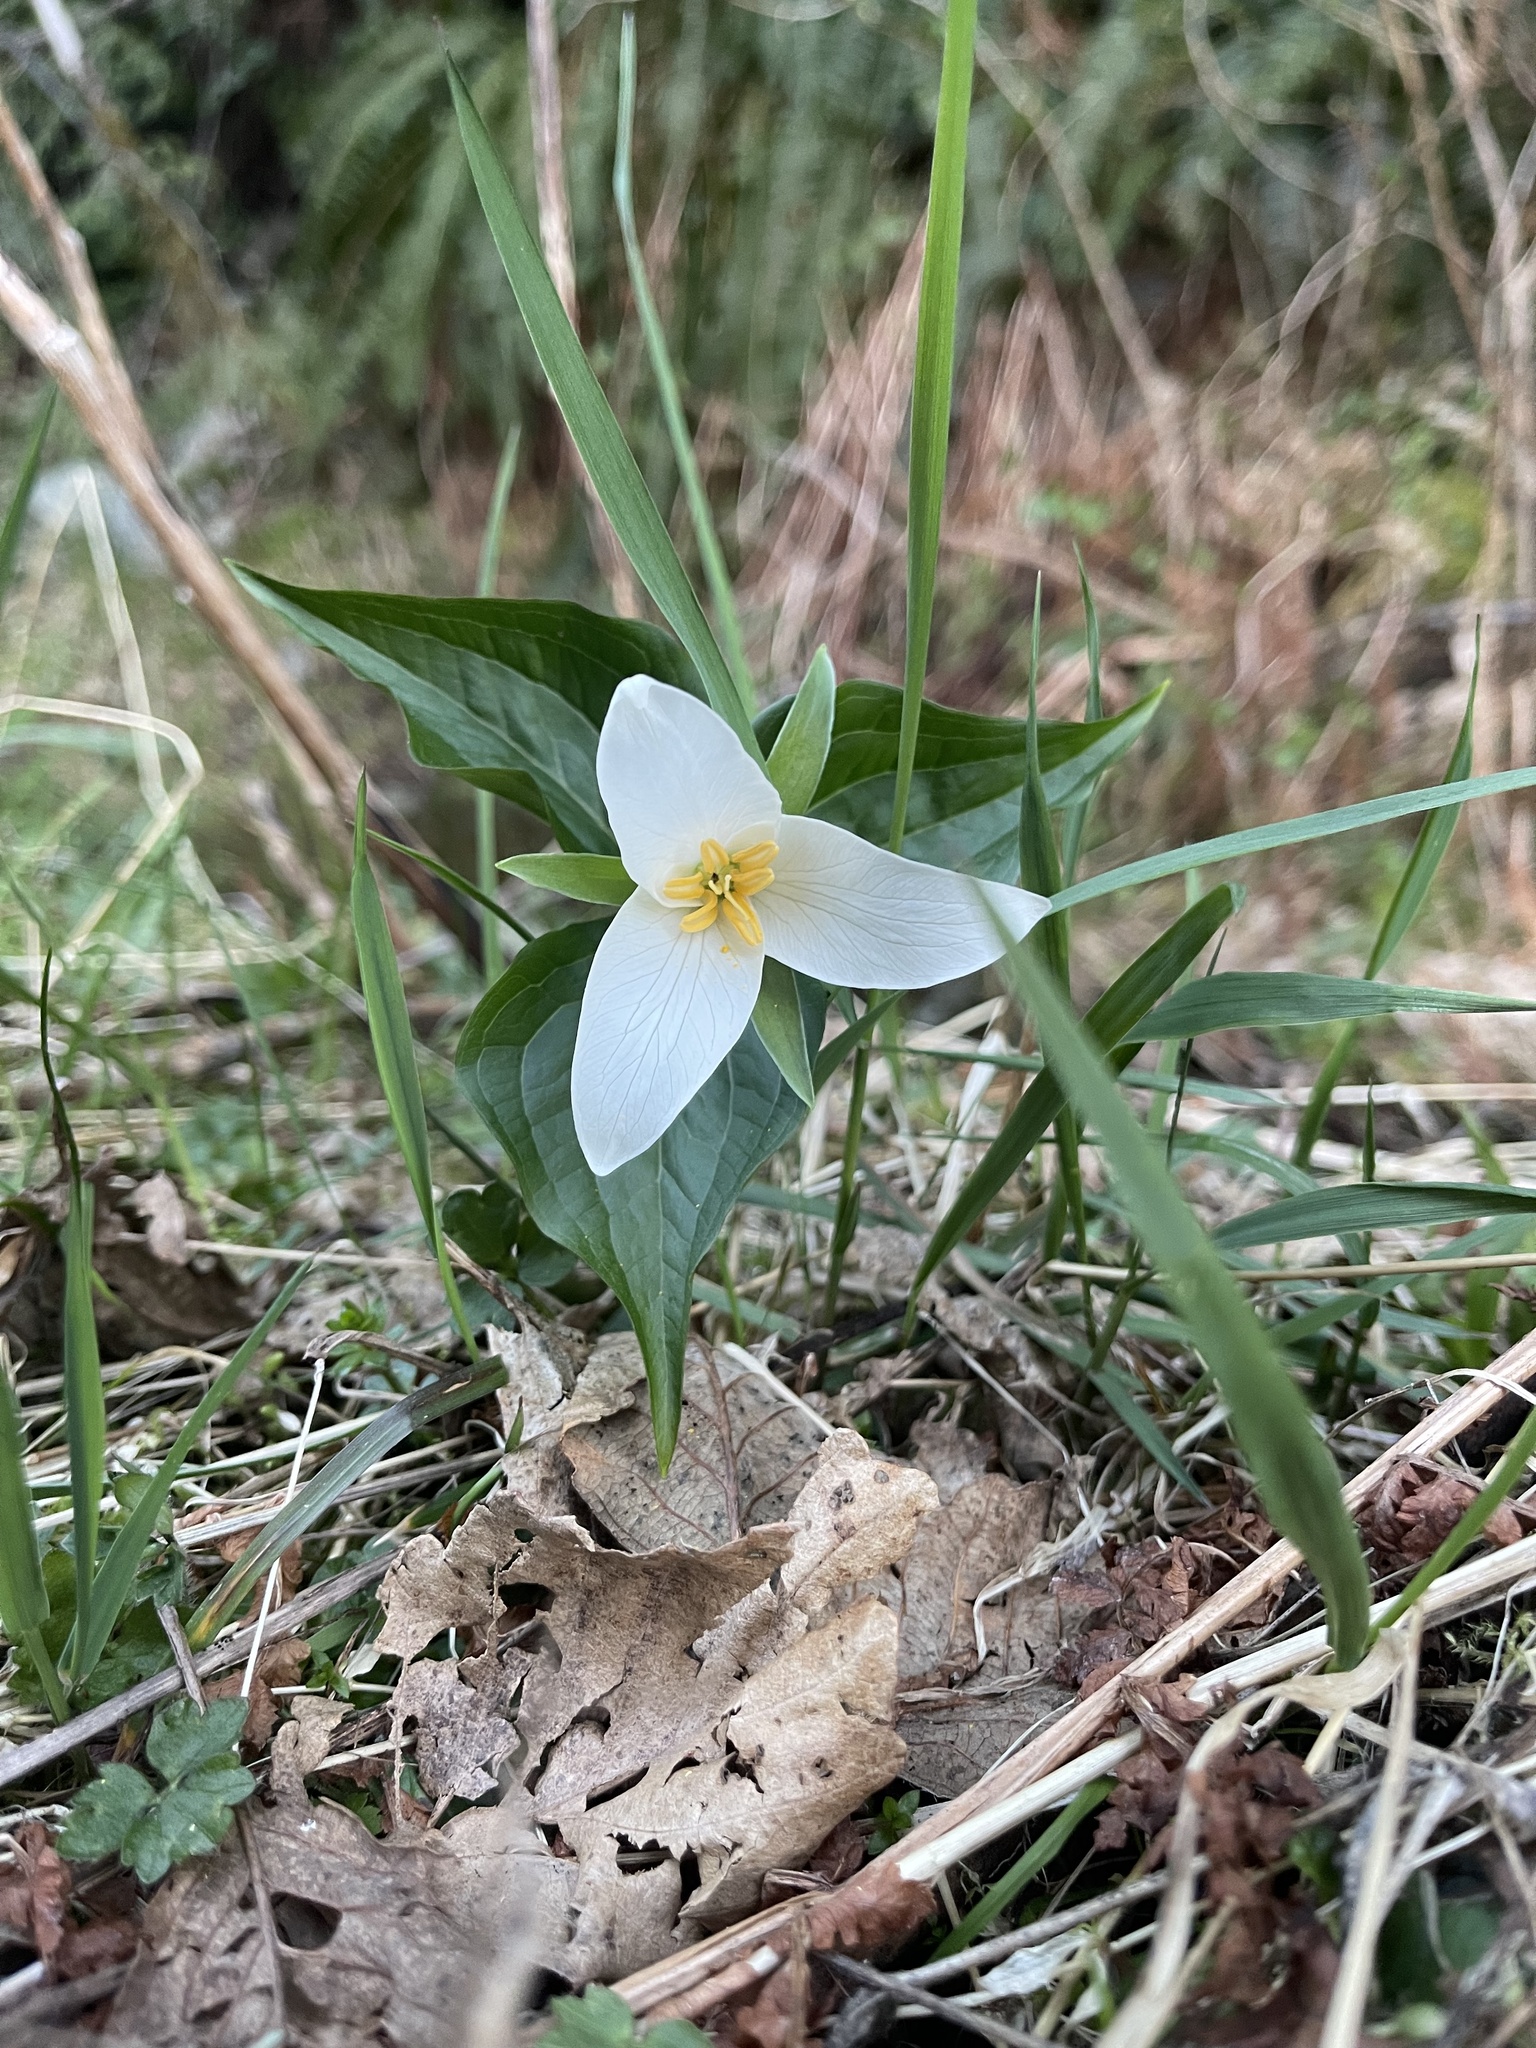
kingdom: Plantae
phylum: Tracheophyta
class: Liliopsida
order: Liliales
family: Melanthiaceae
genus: Trillium
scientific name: Trillium ovatum
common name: Pacific trillium
